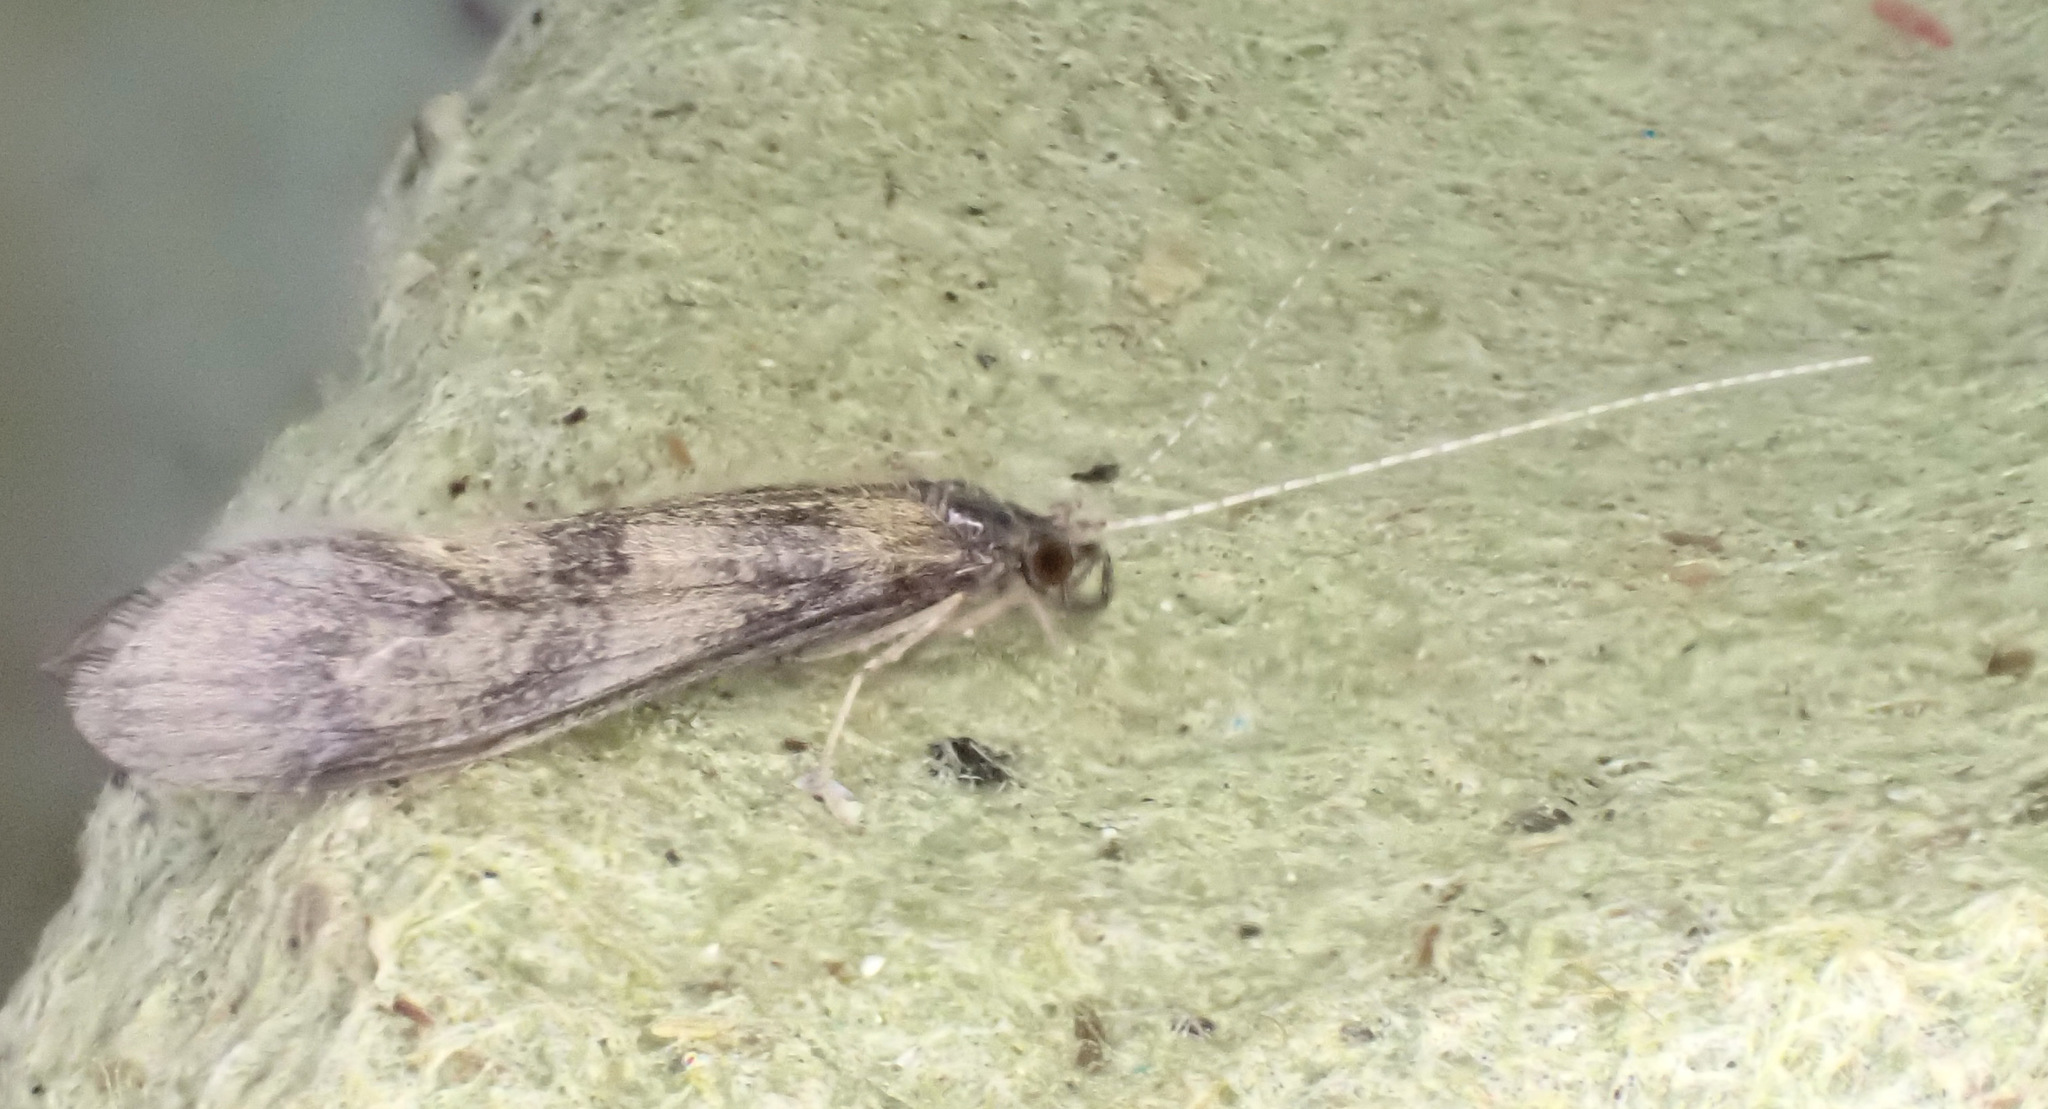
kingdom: Animalia
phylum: Arthropoda
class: Insecta
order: Trichoptera
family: Leptoceridae
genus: Mystacides
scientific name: Mystacides longicornis
